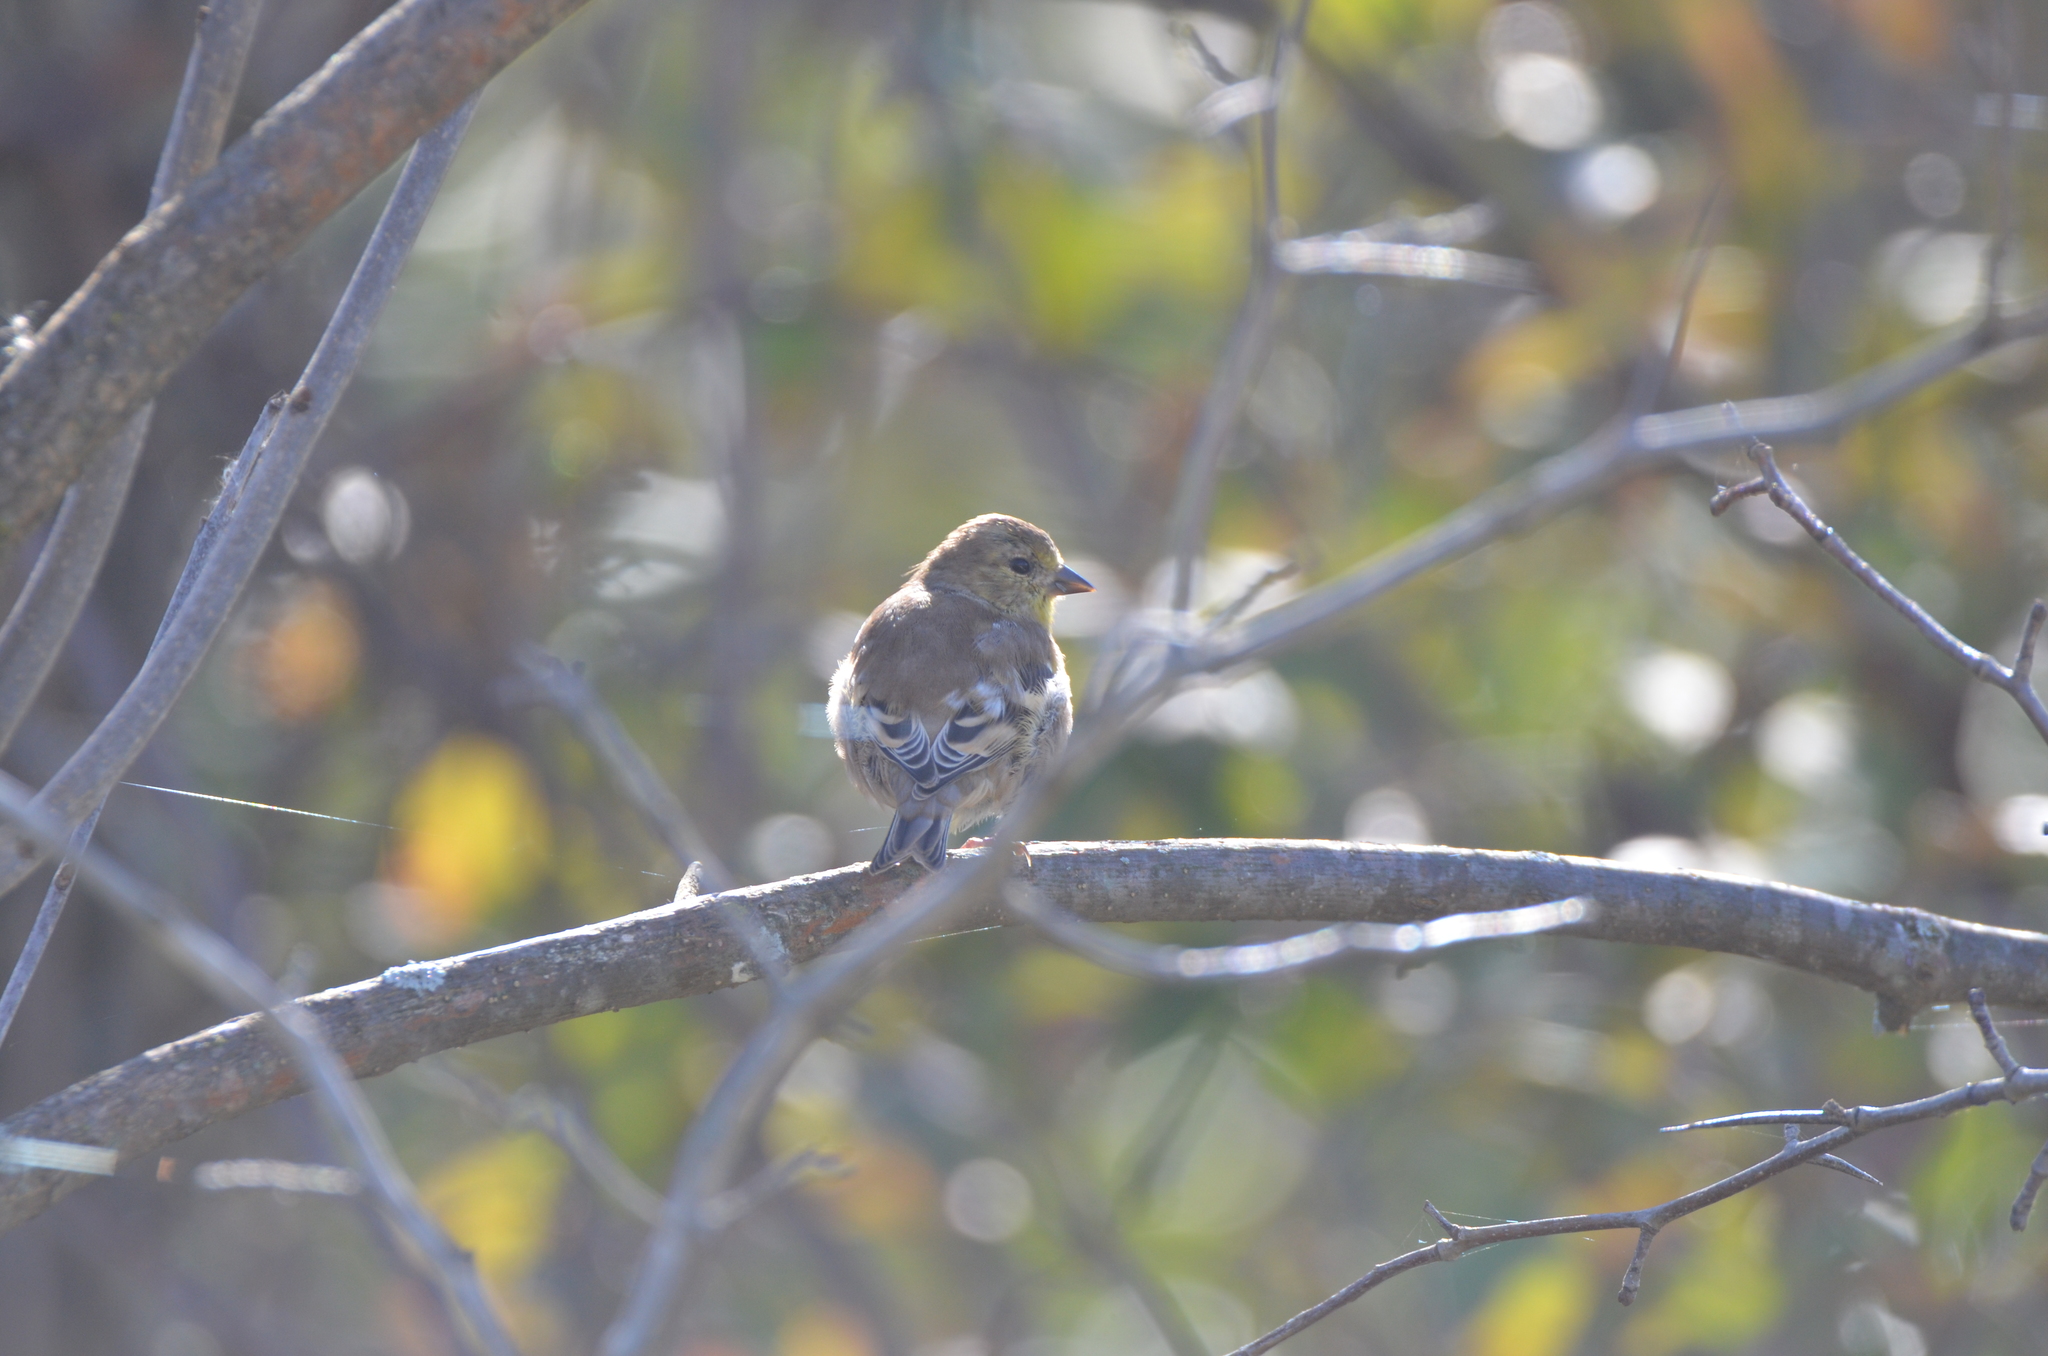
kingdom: Animalia
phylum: Chordata
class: Aves
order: Passeriformes
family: Fringillidae
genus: Spinus
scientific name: Spinus tristis
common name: American goldfinch
